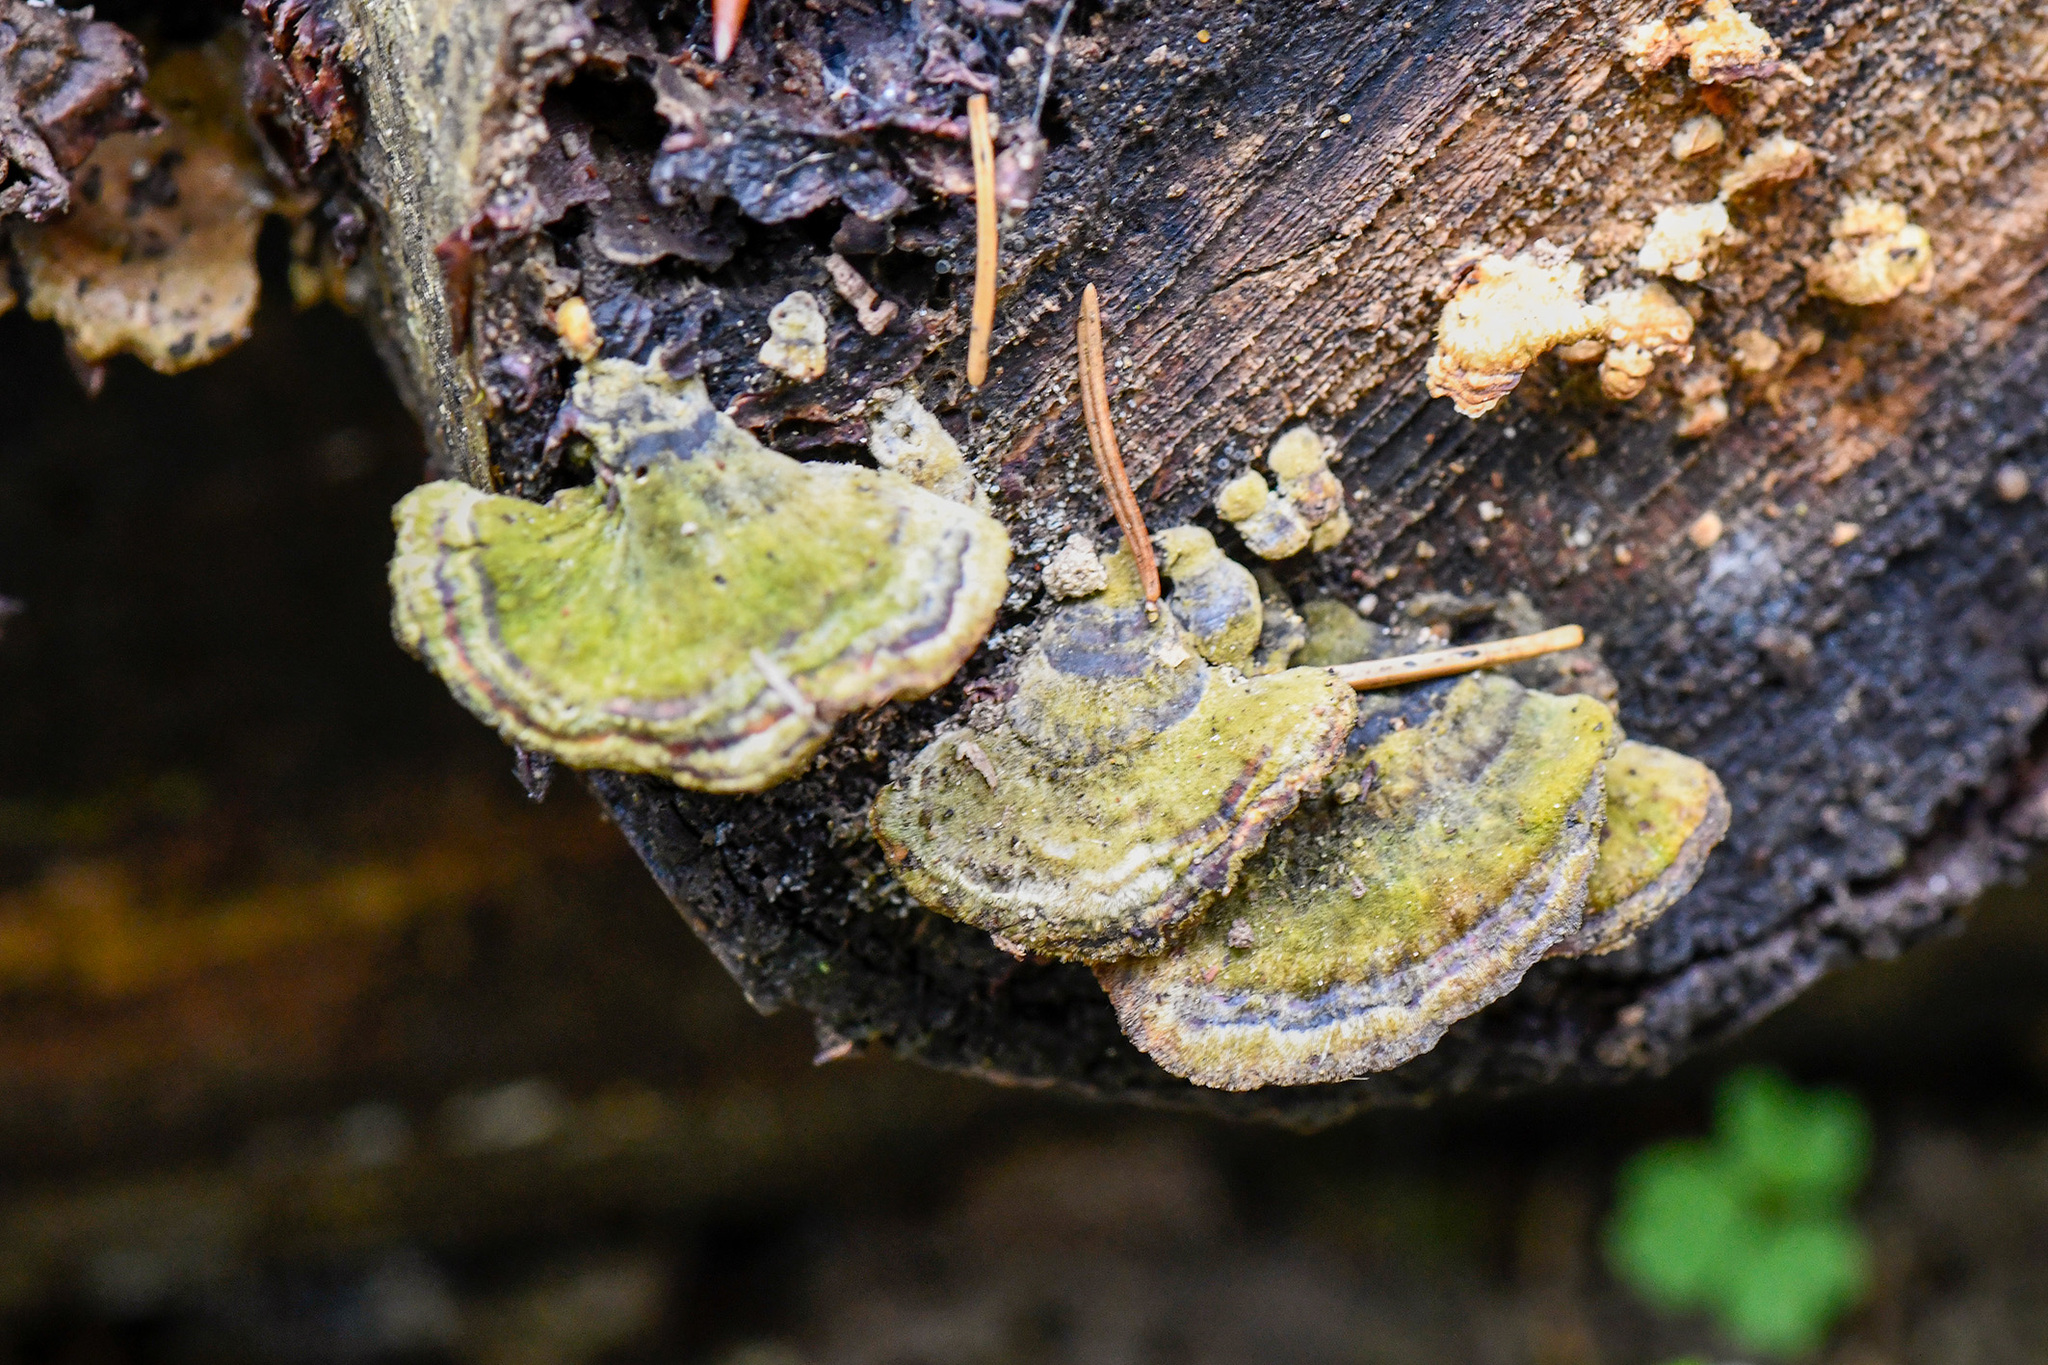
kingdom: Fungi
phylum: Basidiomycota
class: Agaricomycetes
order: Polyporales
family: Cerrenaceae
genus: Cerrena
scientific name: Cerrena unicolor
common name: Mossy maze polypore
